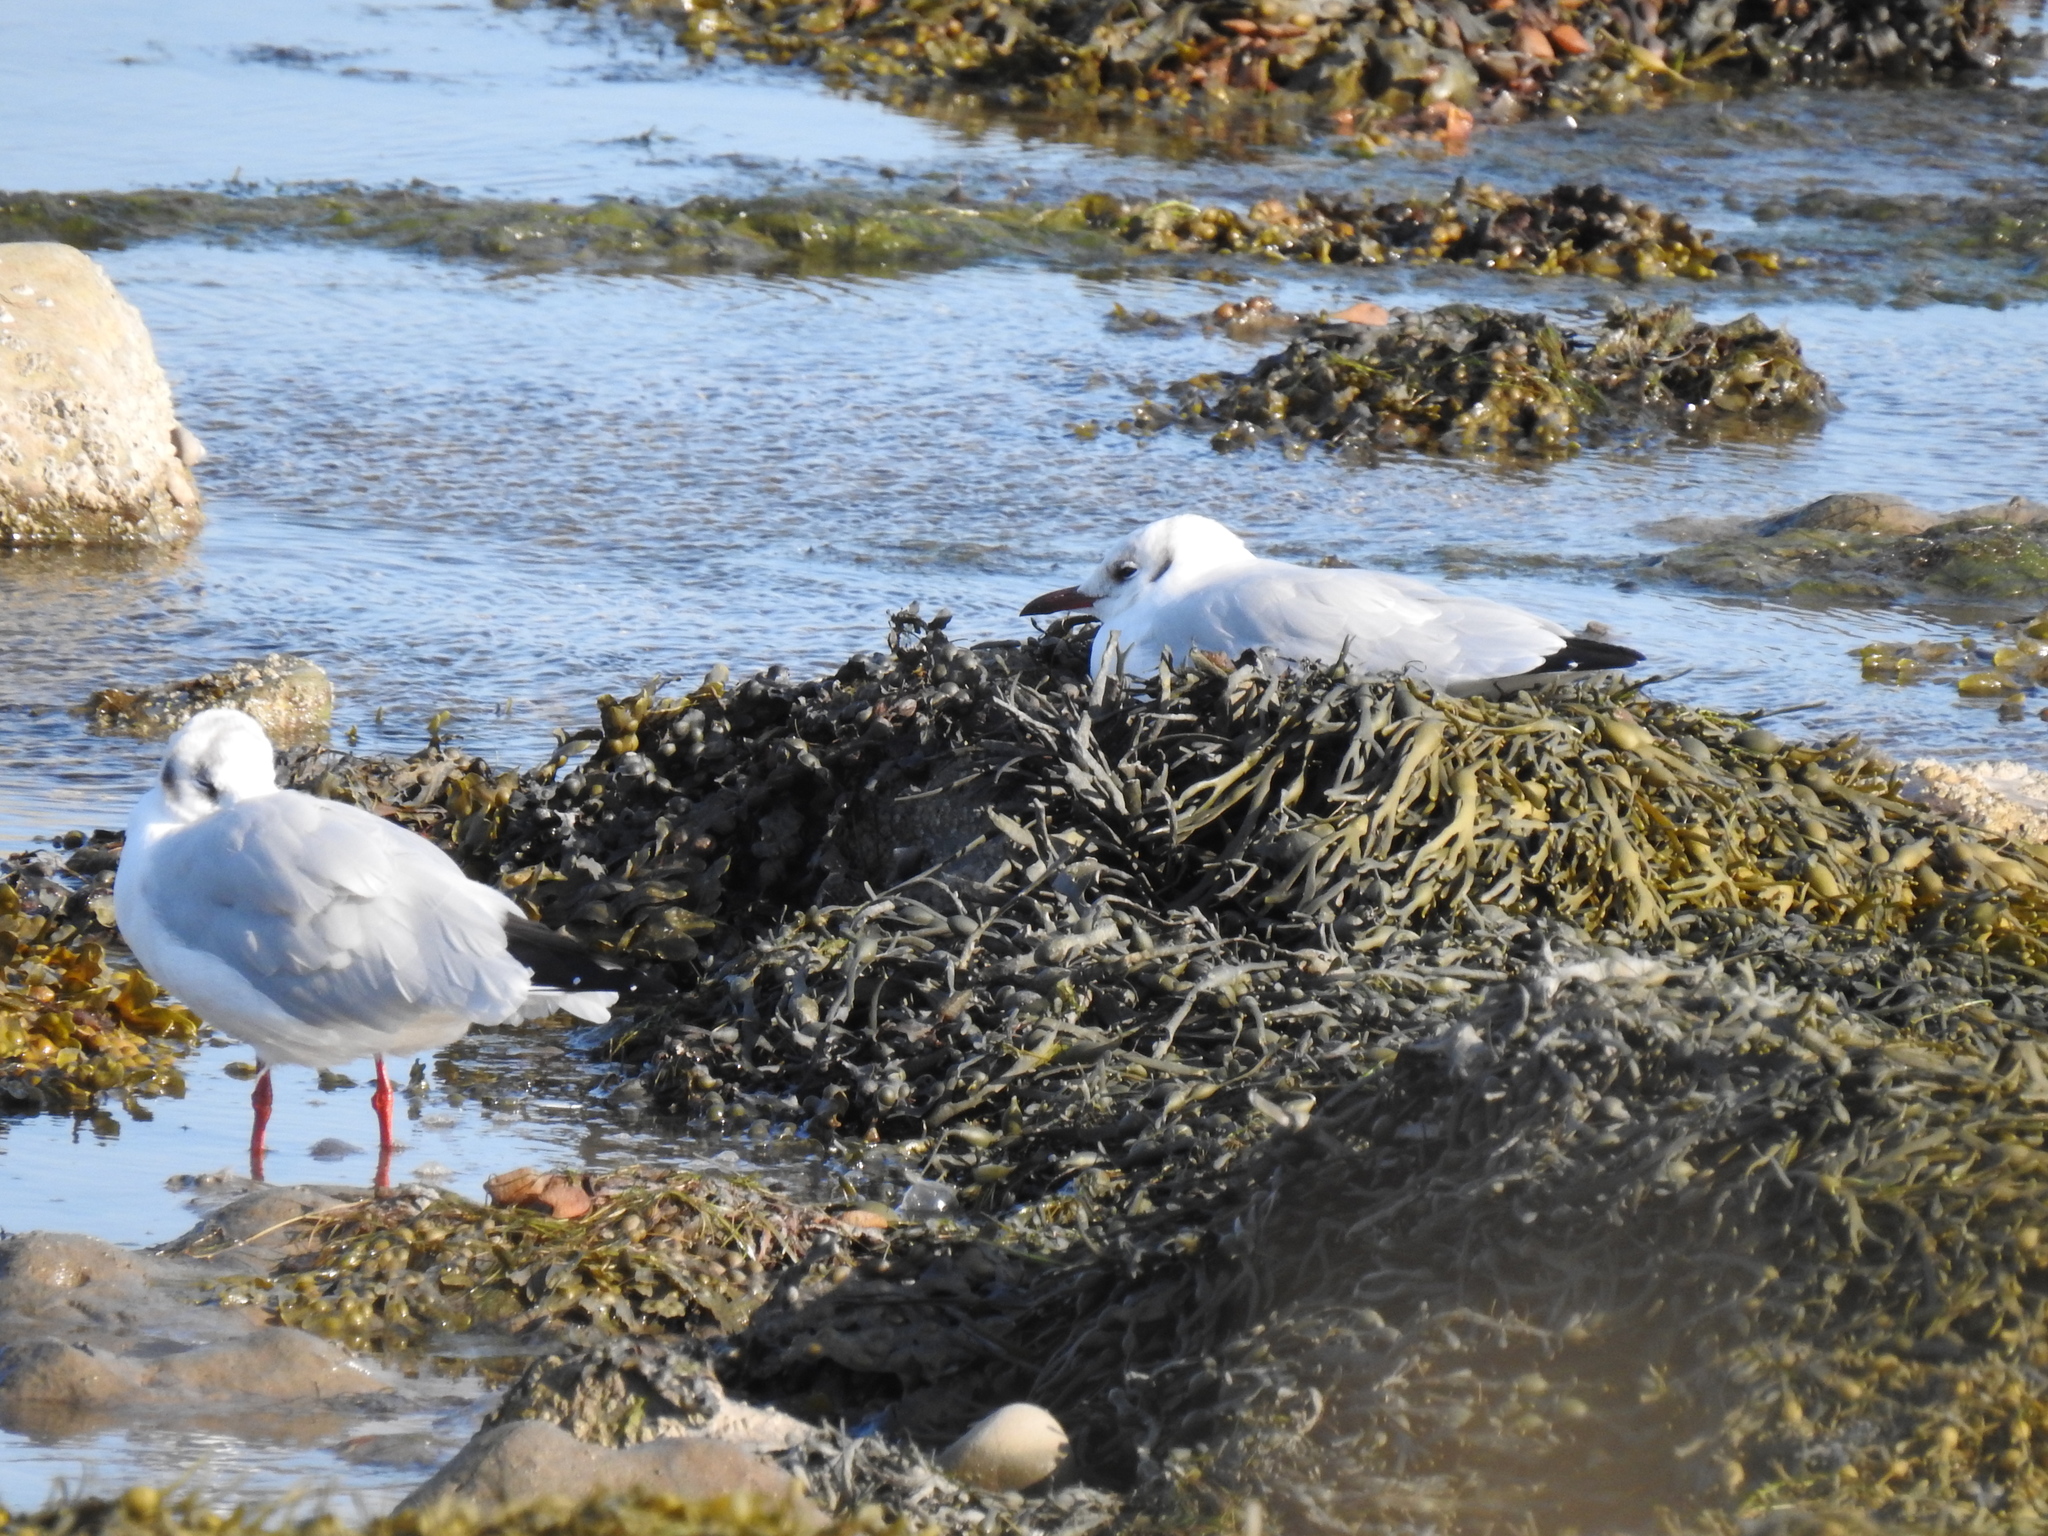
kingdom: Animalia
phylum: Chordata
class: Aves
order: Charadriiformes
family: Laridae
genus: Chroicocephalus
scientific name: Chroicocephalus ridibundus
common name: Black-headed gull
